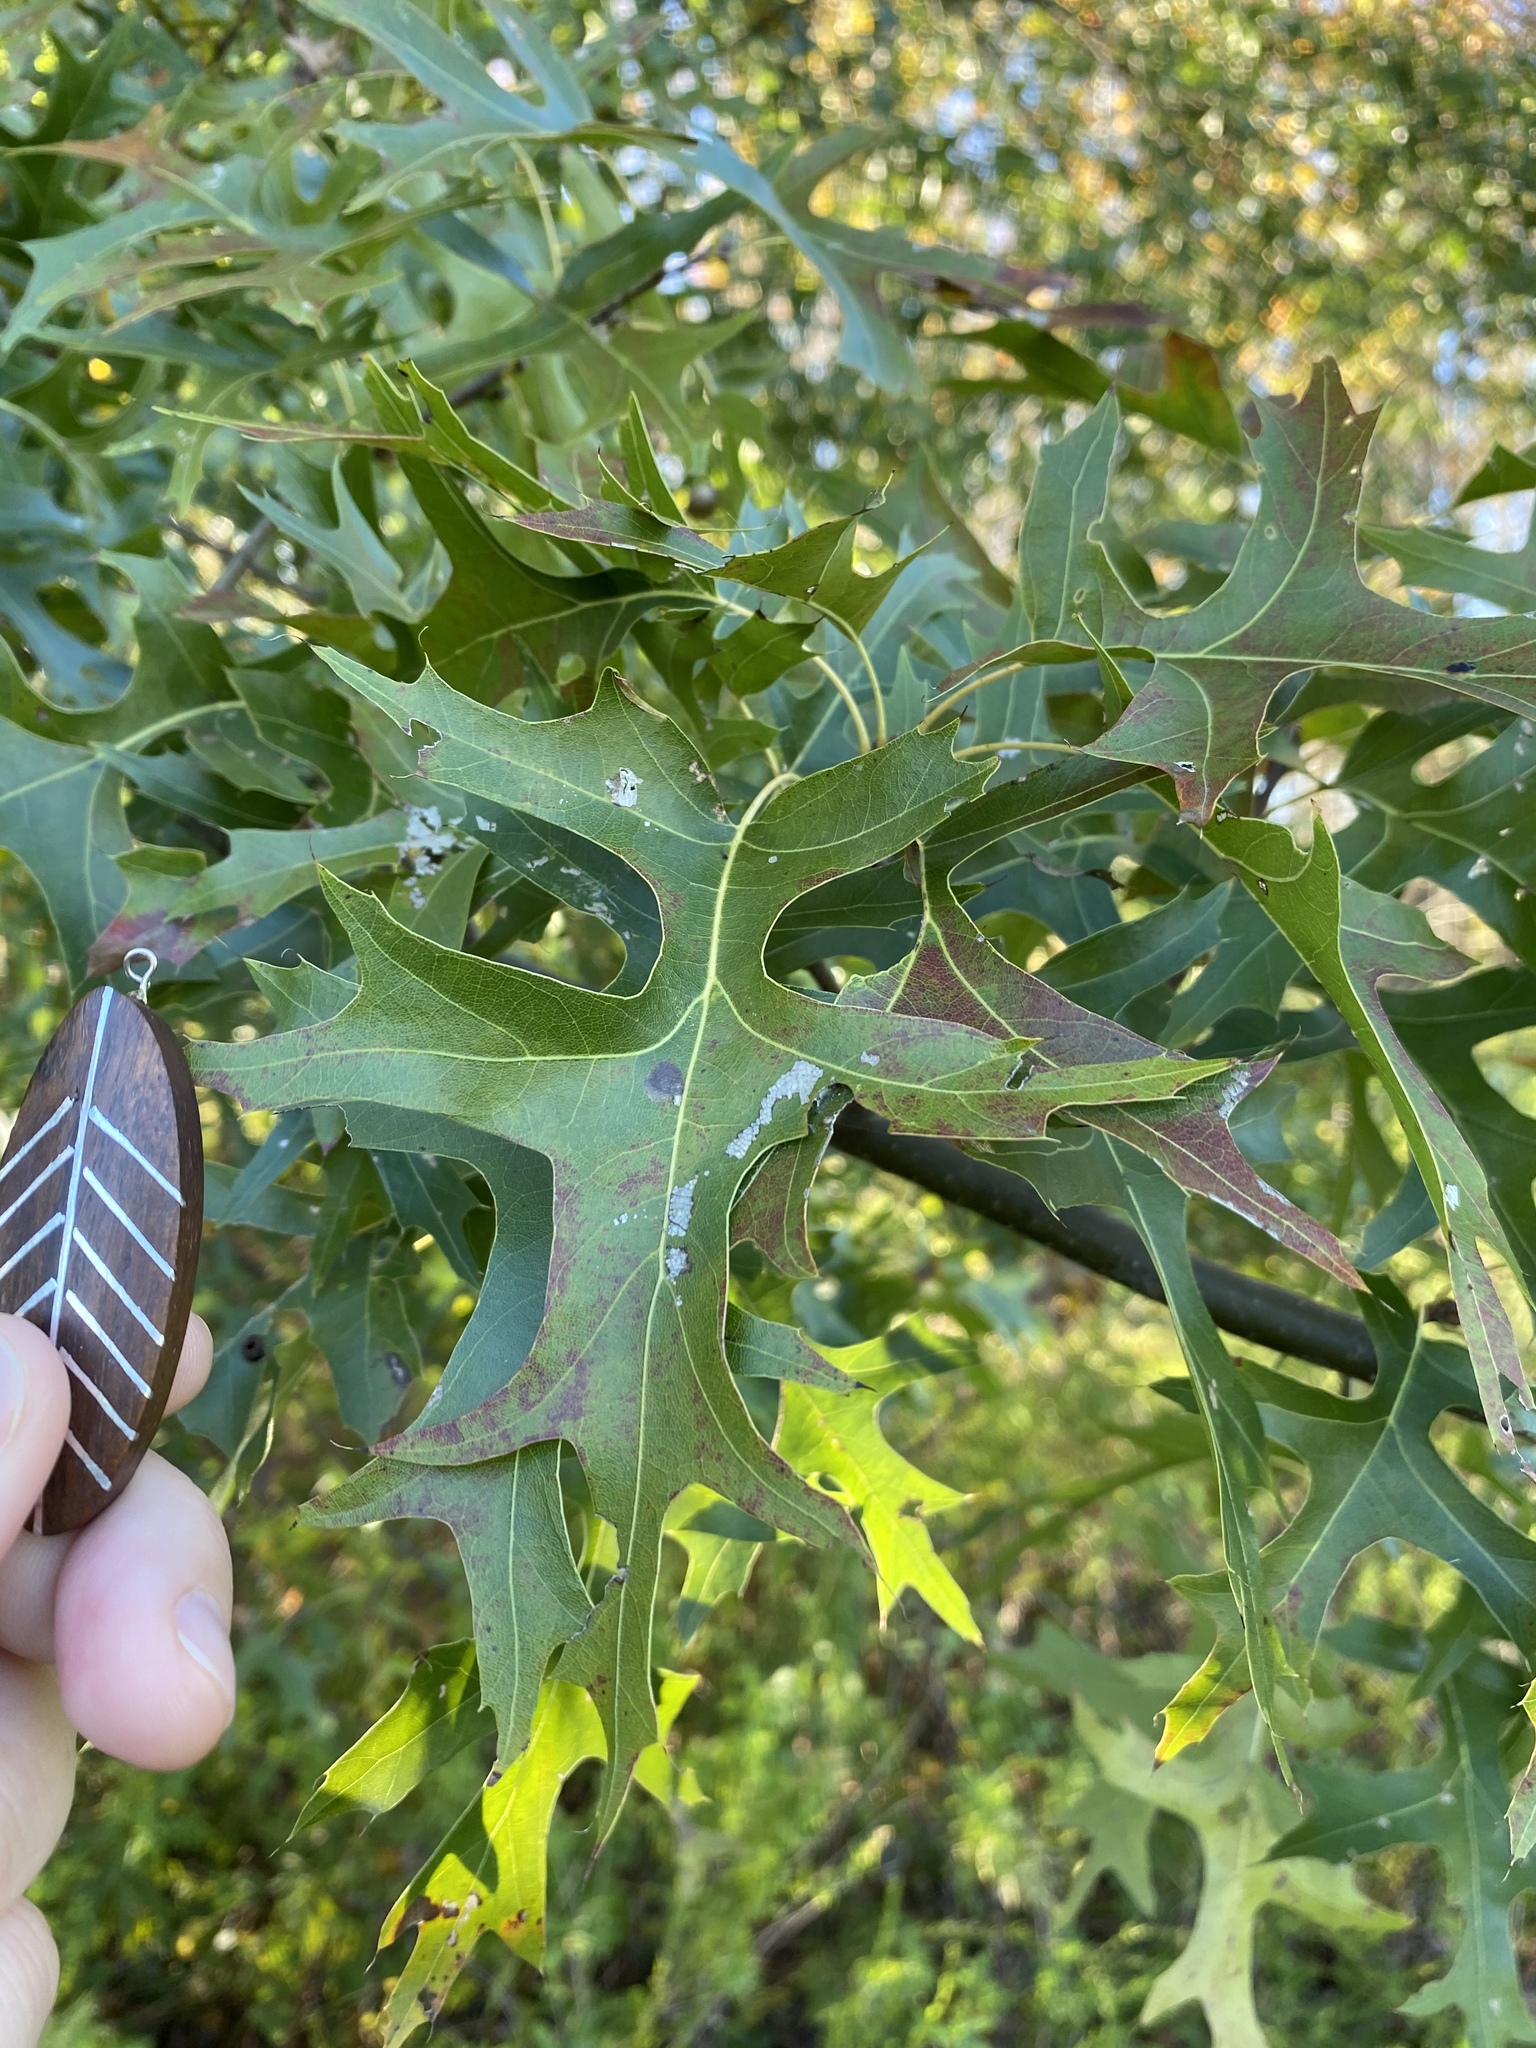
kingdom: Plantae
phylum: Tracheophyta
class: Magnoliopsida
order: Fagales
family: Fagaceae
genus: Quercus
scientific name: Quercus palustris
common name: Pin oak
